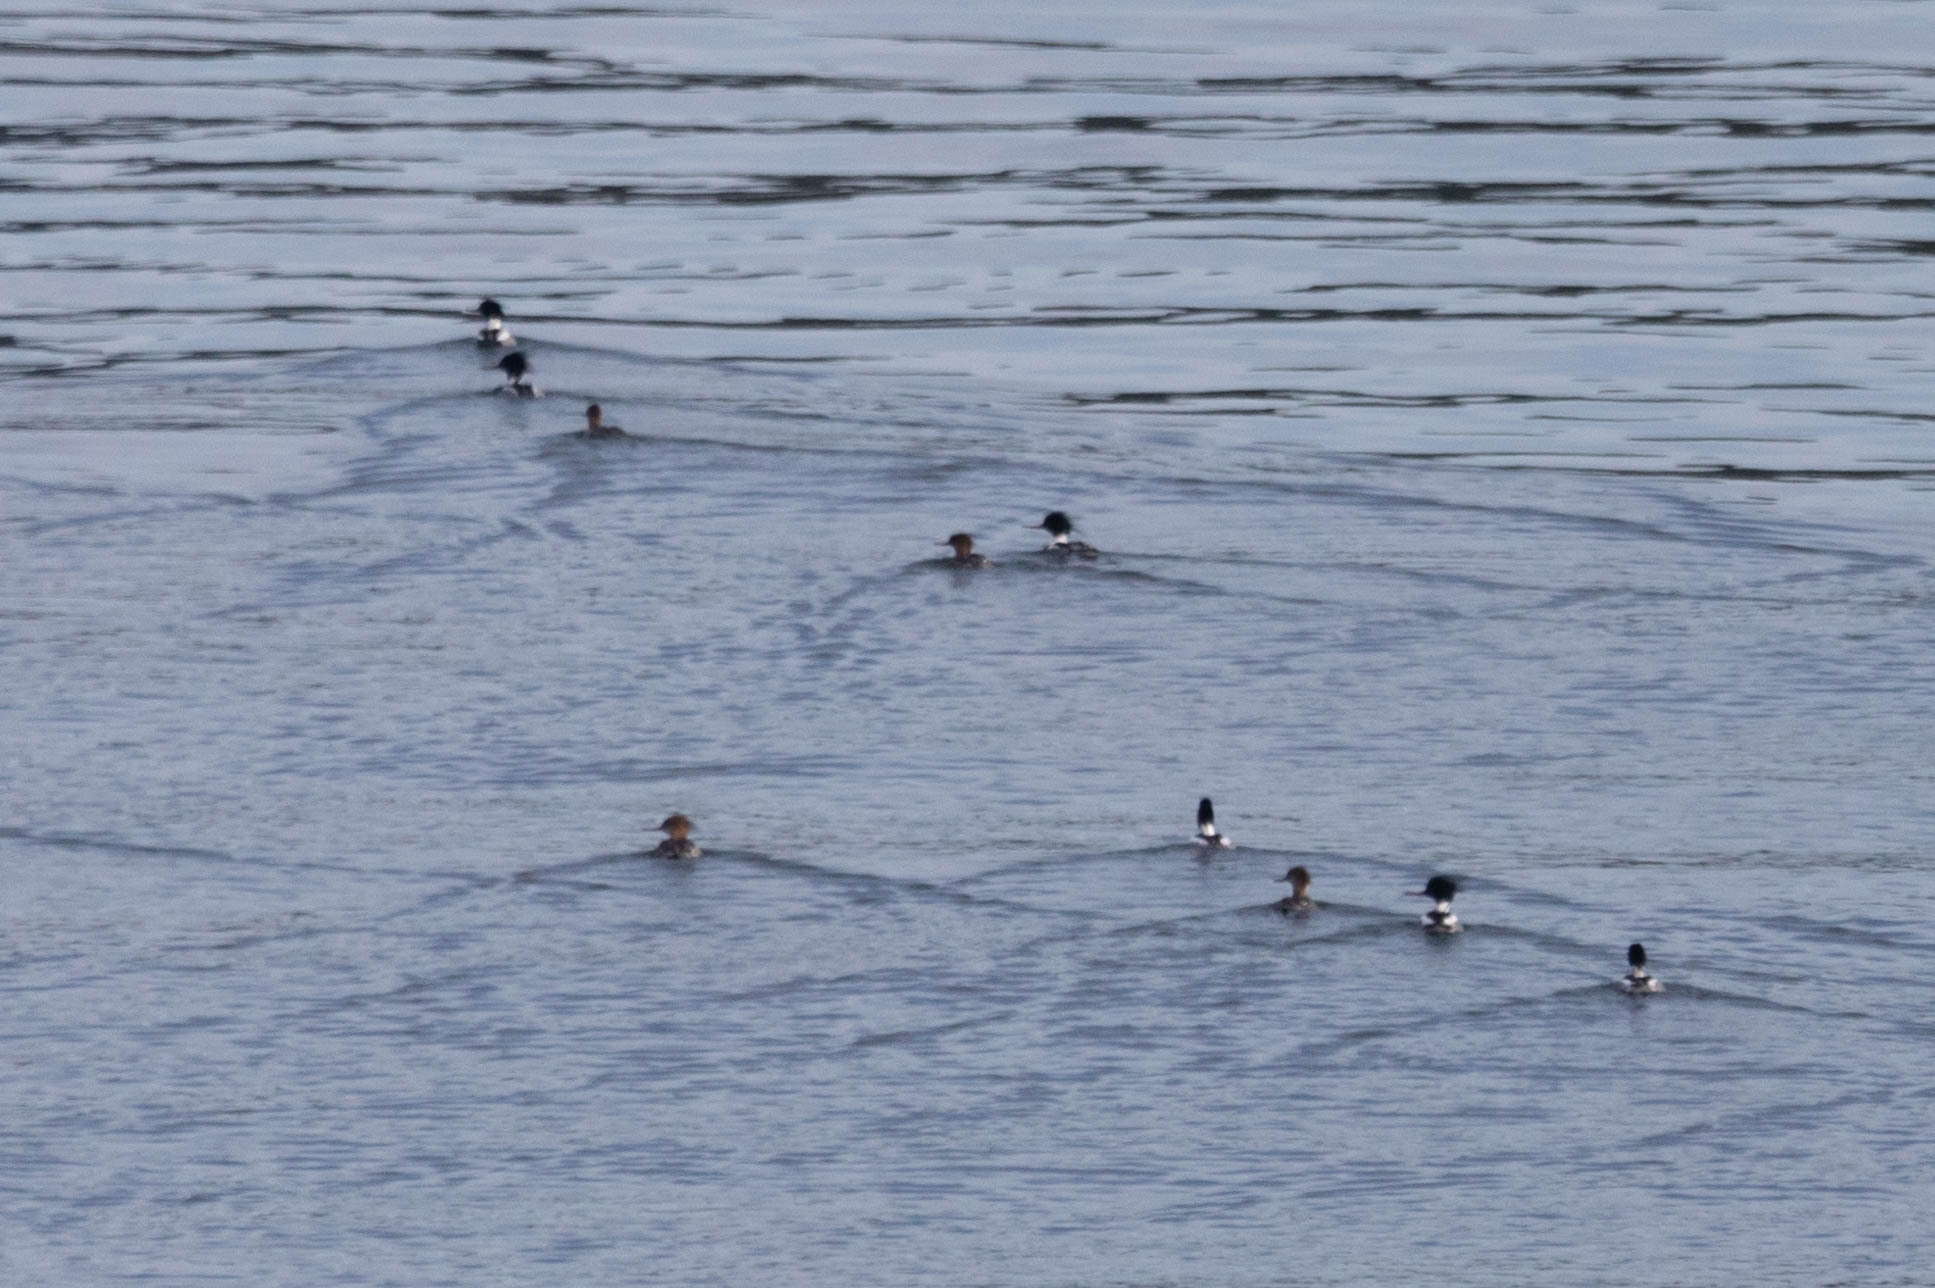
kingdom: Animalia
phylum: Chordata
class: Aves
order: Anseriformes
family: Anatidae
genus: Mergus
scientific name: Mergus serrator
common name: Red-breasted merganser
